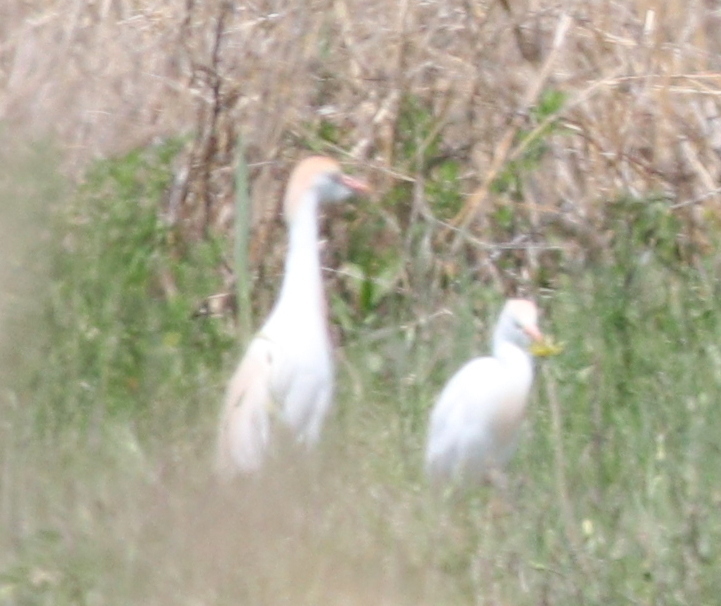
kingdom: Animalia
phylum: Chordata
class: Aves
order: Pelecaniformes
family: Ardeidae
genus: Bubulcus
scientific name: Bubulcus ibis
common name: Cattle egret
